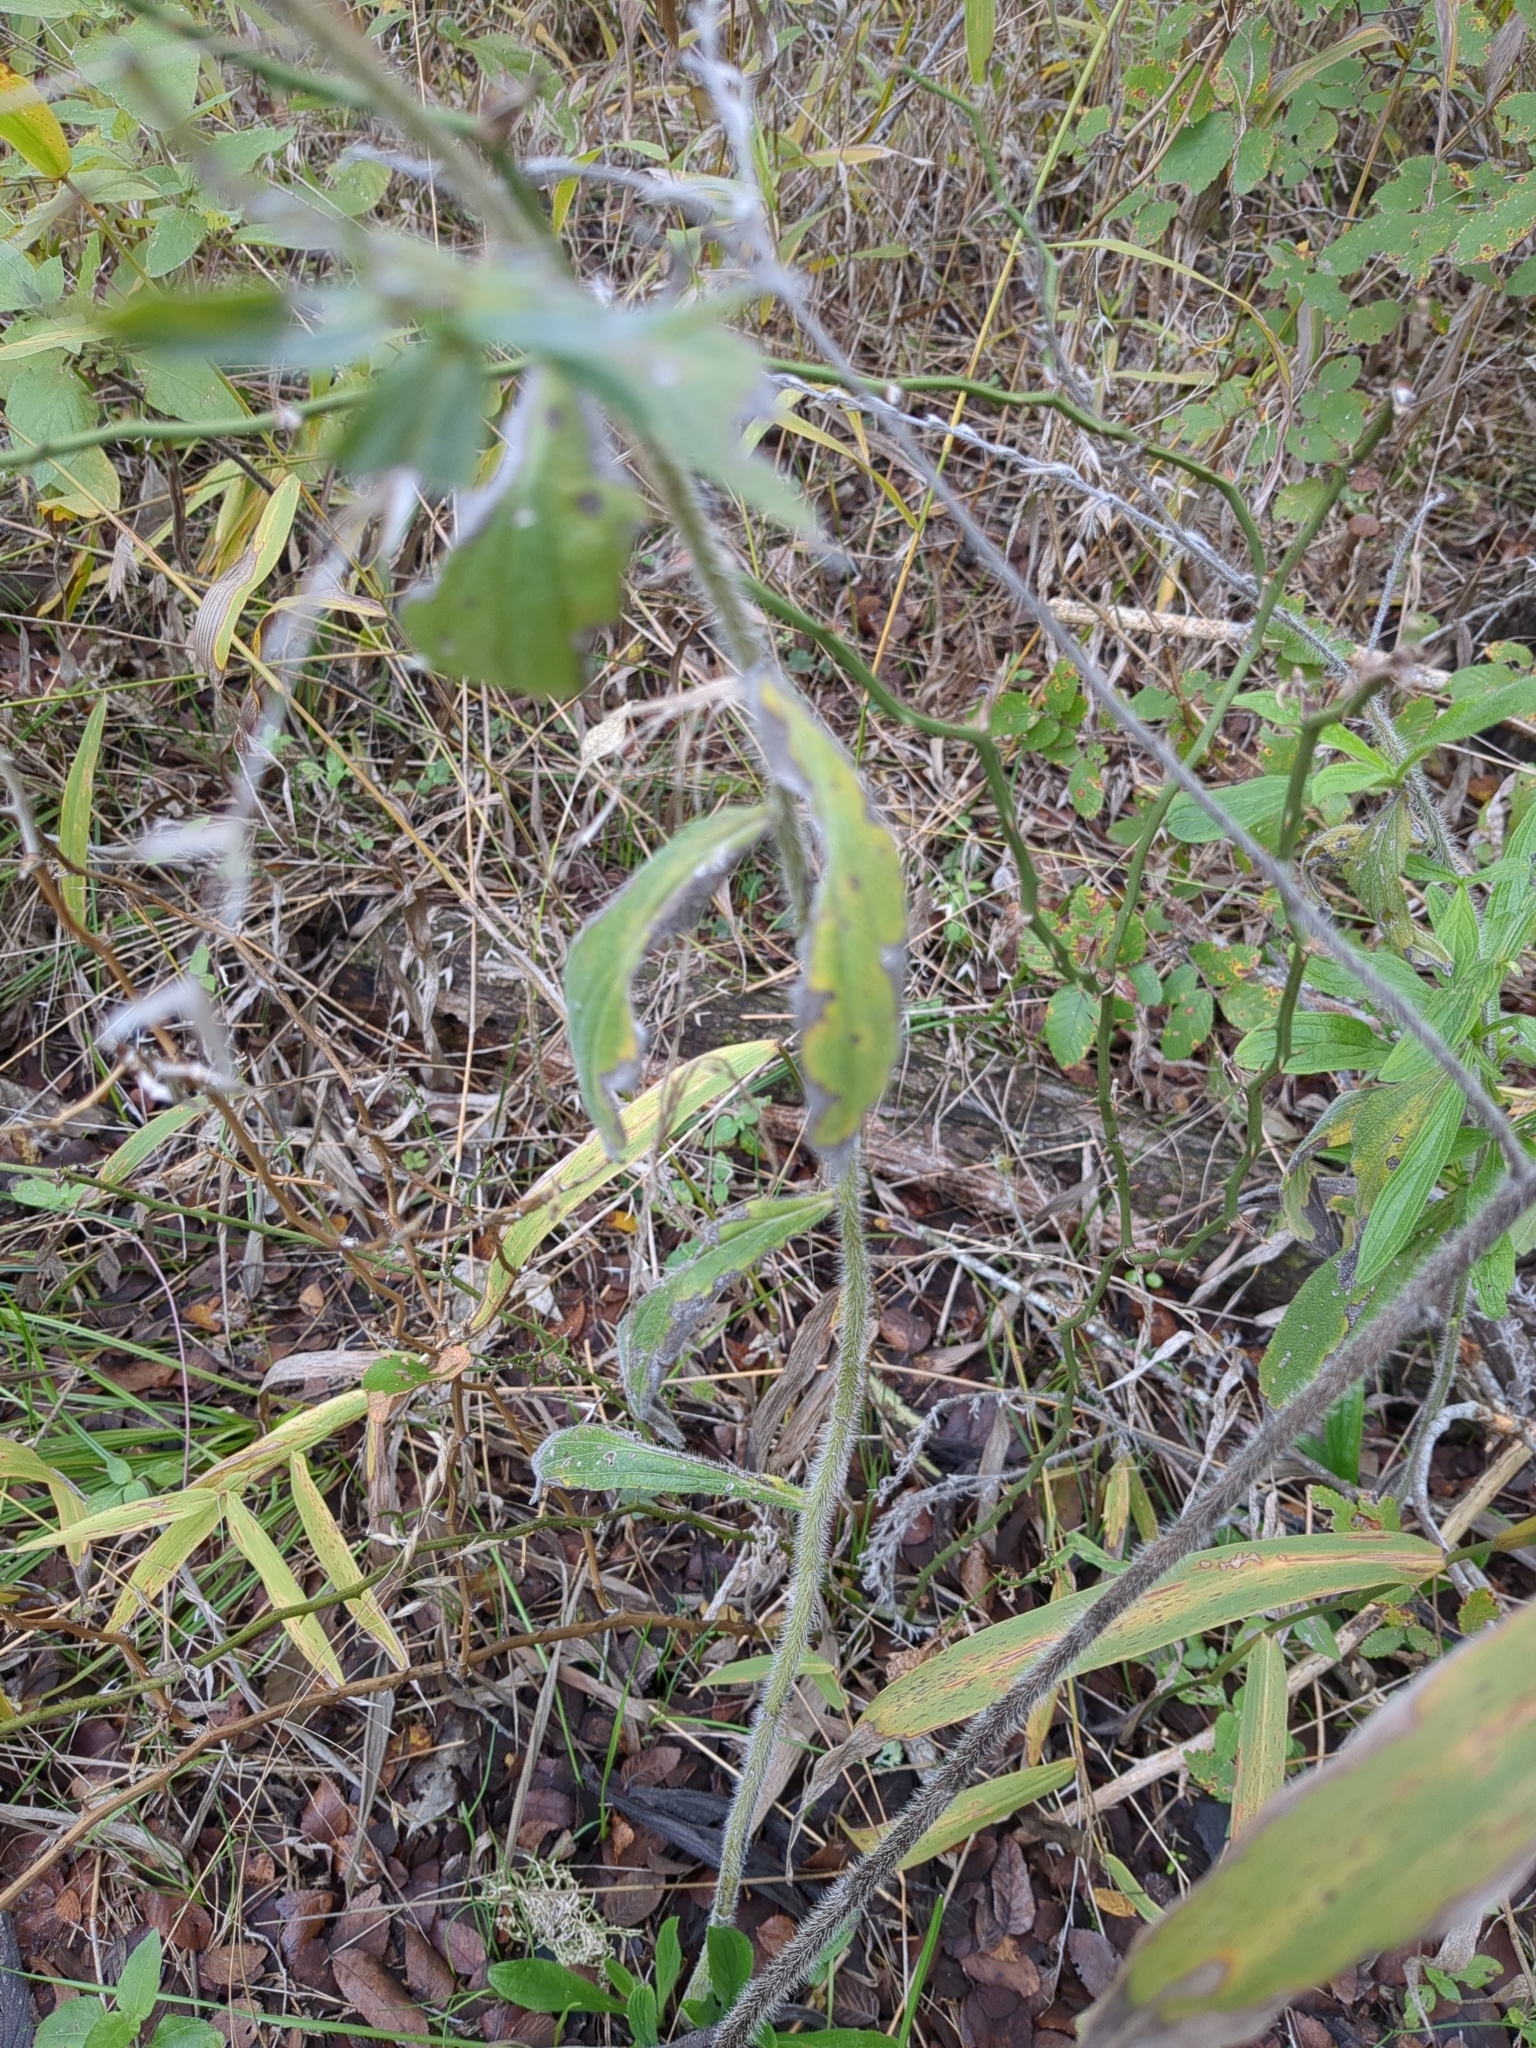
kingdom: Plantae
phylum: Tracheophyta
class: Magnoliopsida
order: Boraginales
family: Boraginaceae
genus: Lithospermum
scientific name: Lithospermum caroliniense
